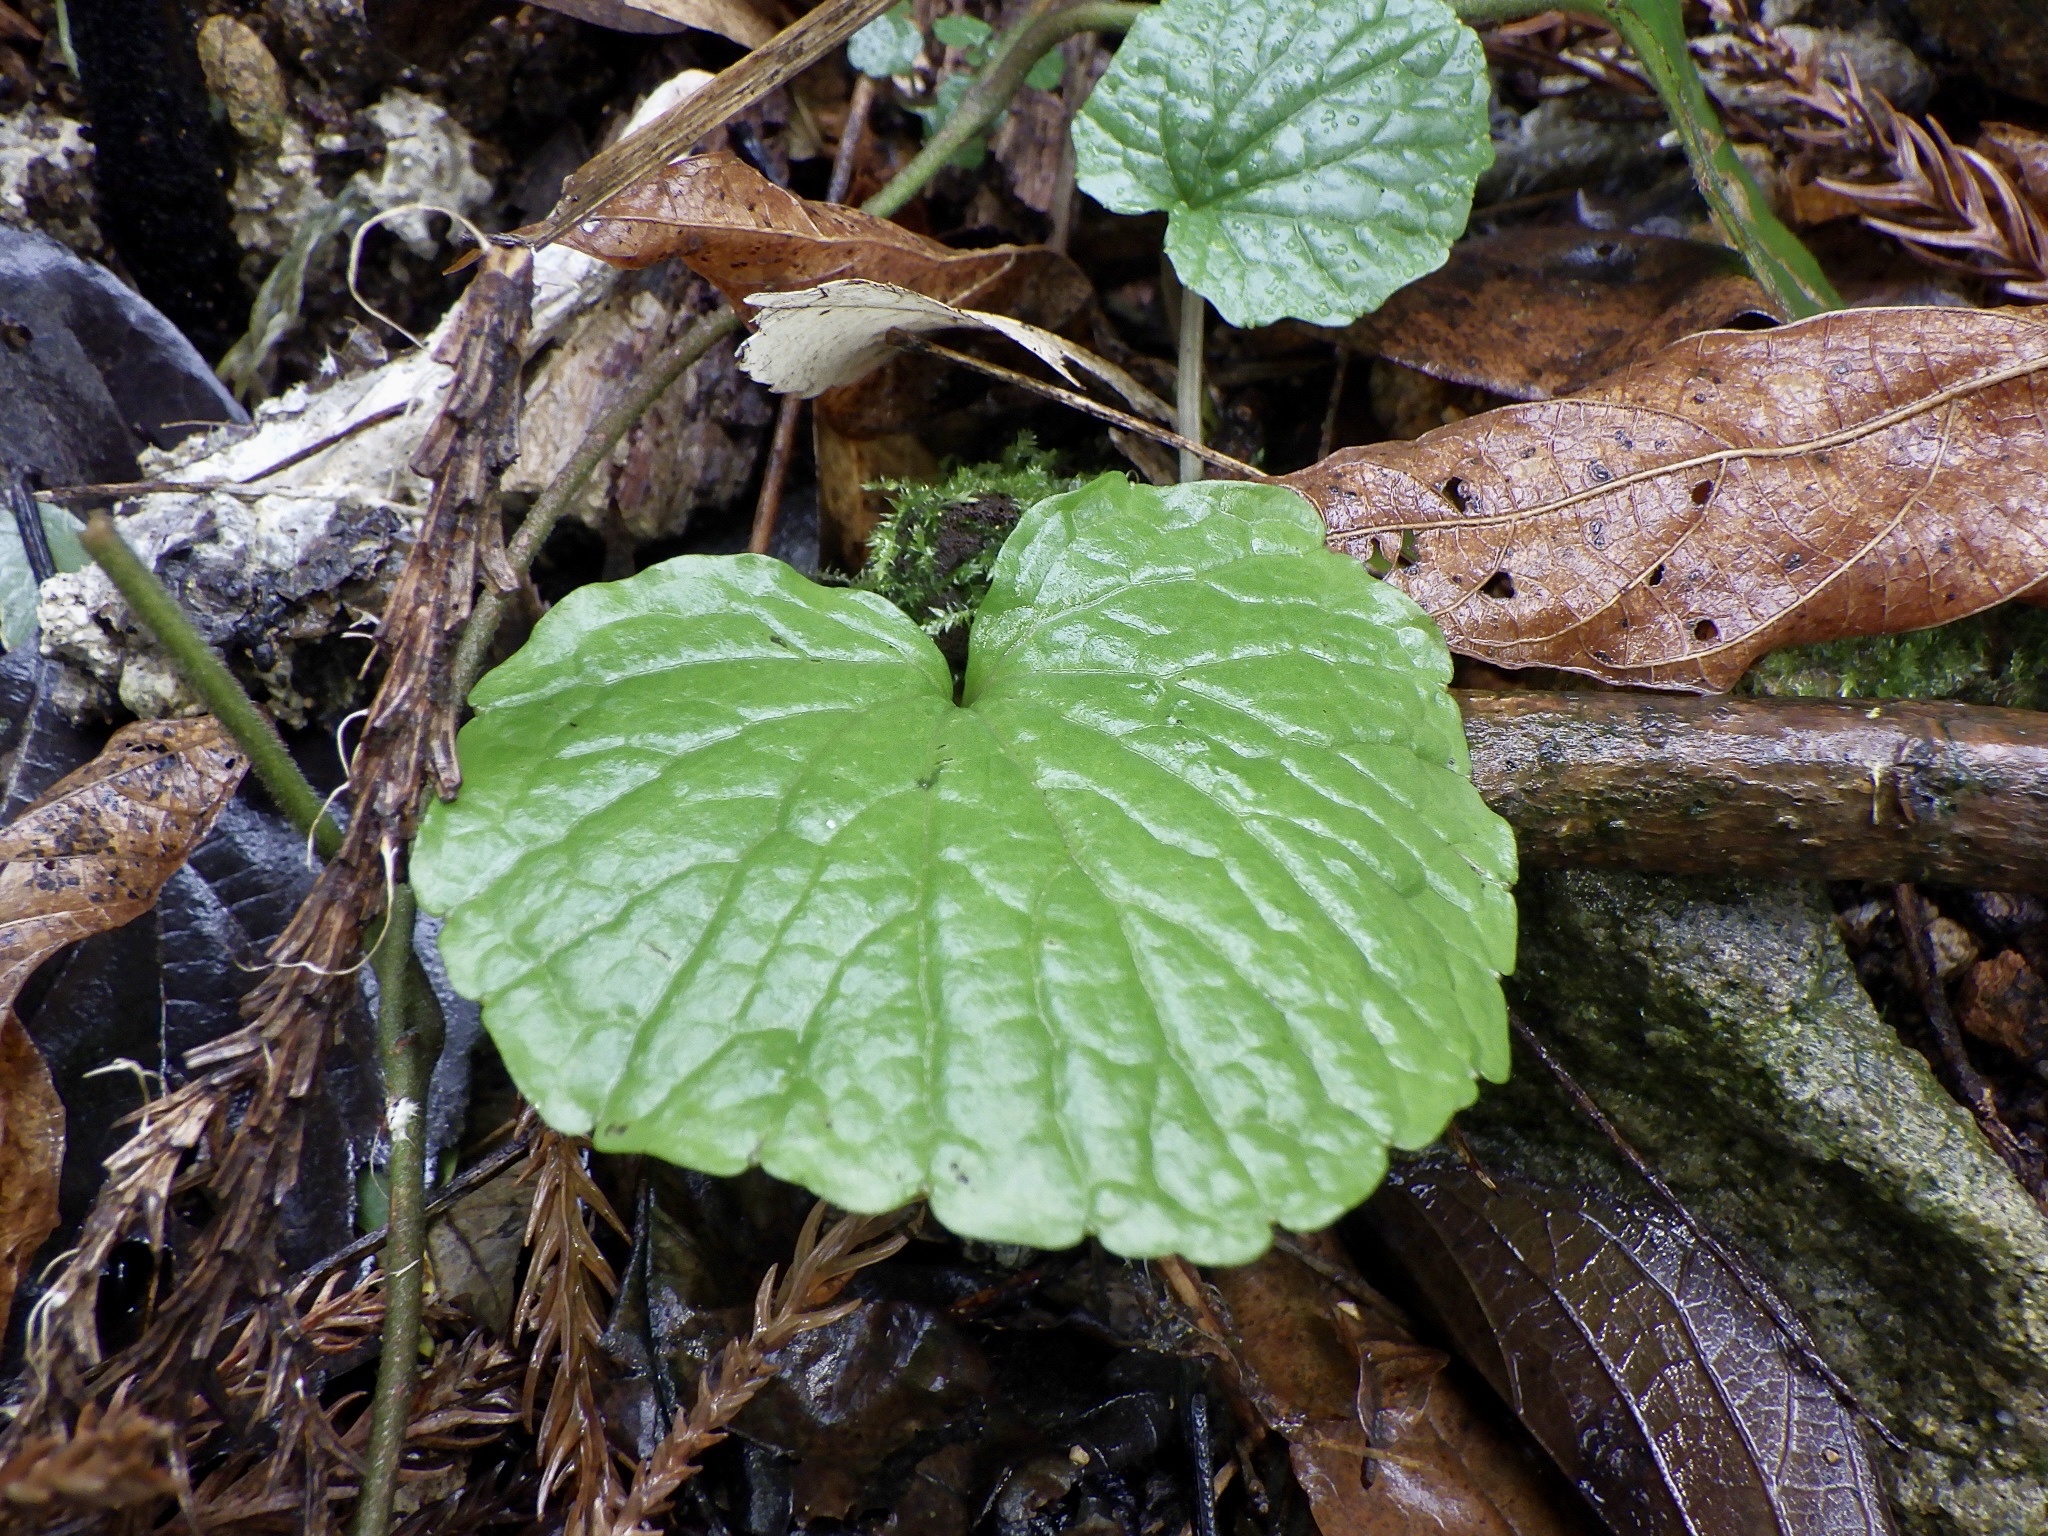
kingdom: Plantae
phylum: Tracheophyta
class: Magnoliopsida
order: Brassicales
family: Brassicaceae
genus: Eutrema
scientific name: Eutrema japonicum
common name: Japanese-horseradish
